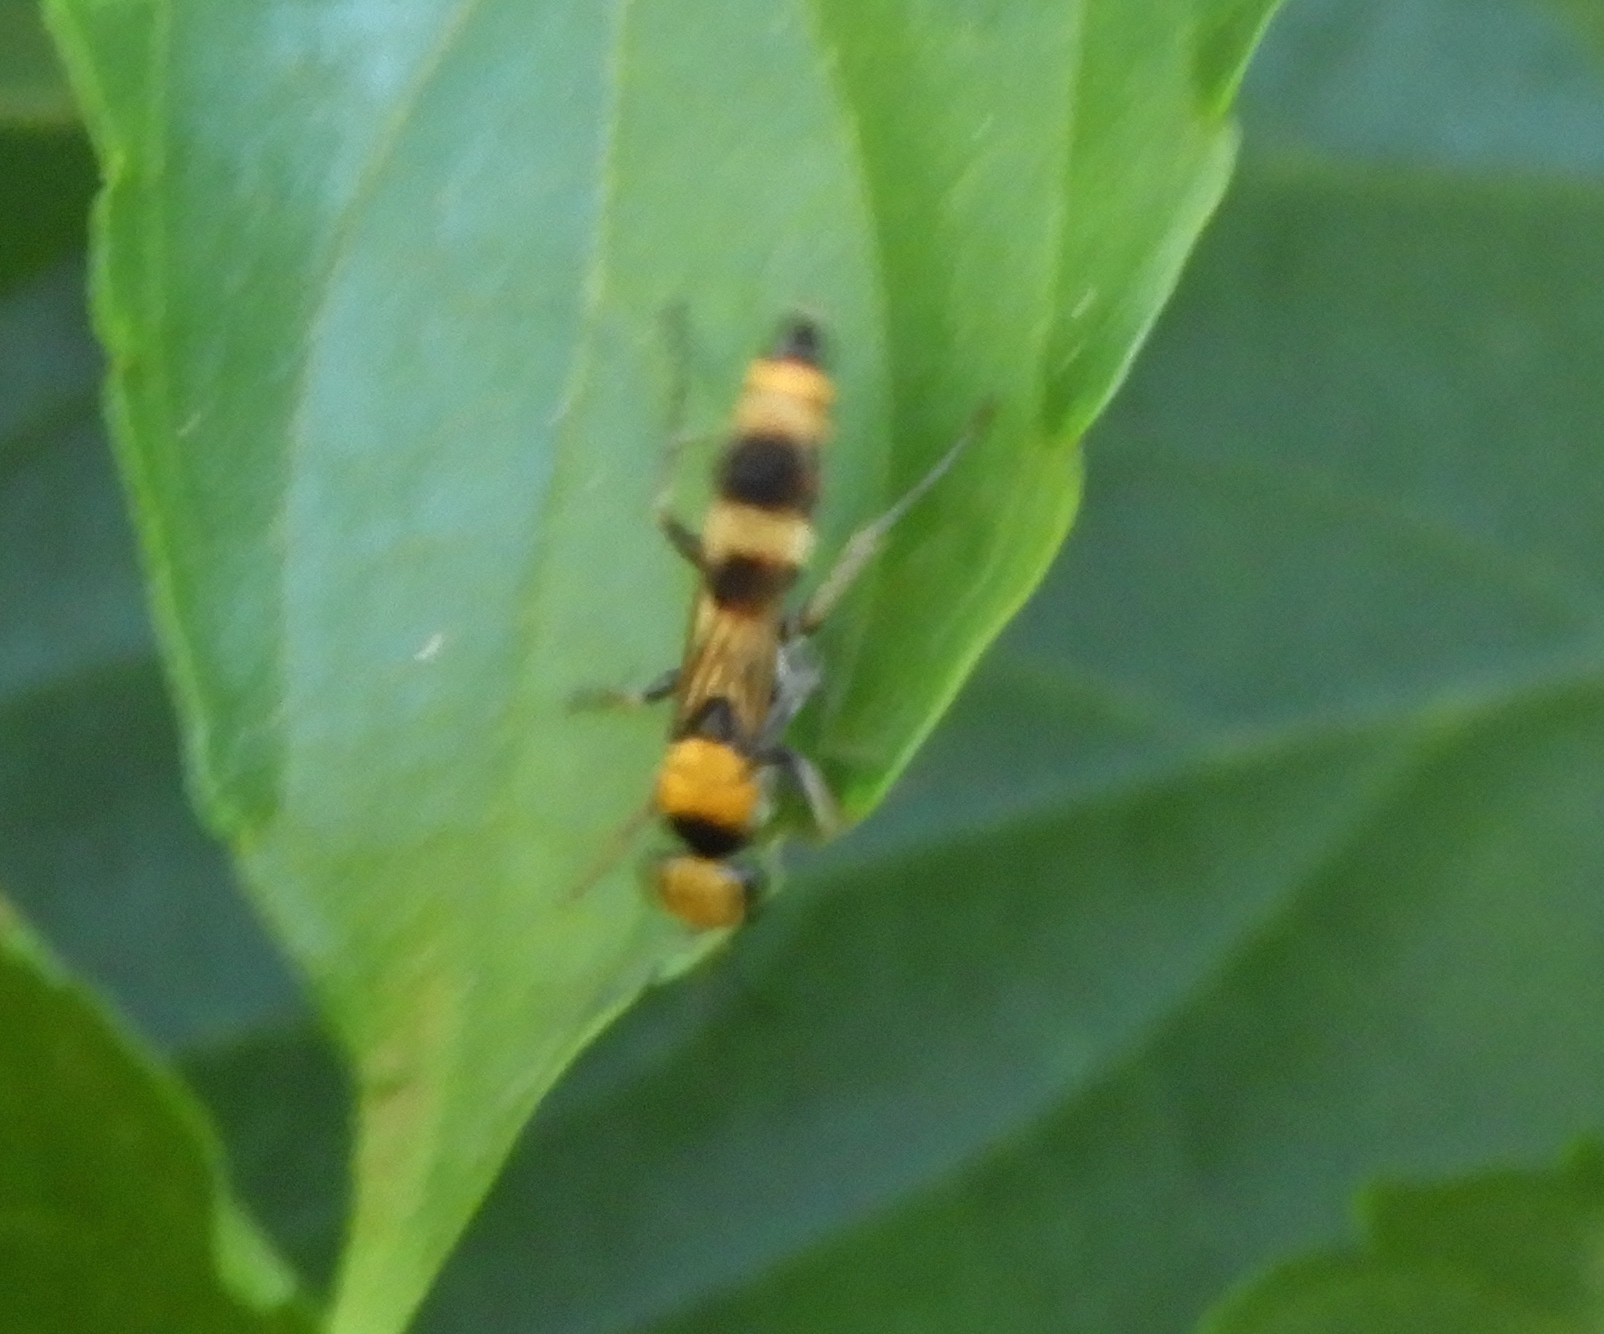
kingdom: Animalia
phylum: Arthropoda
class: Insecta
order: Hymenoptera
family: Pompilidae
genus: Psorthaspis
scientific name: Psorthaspis
